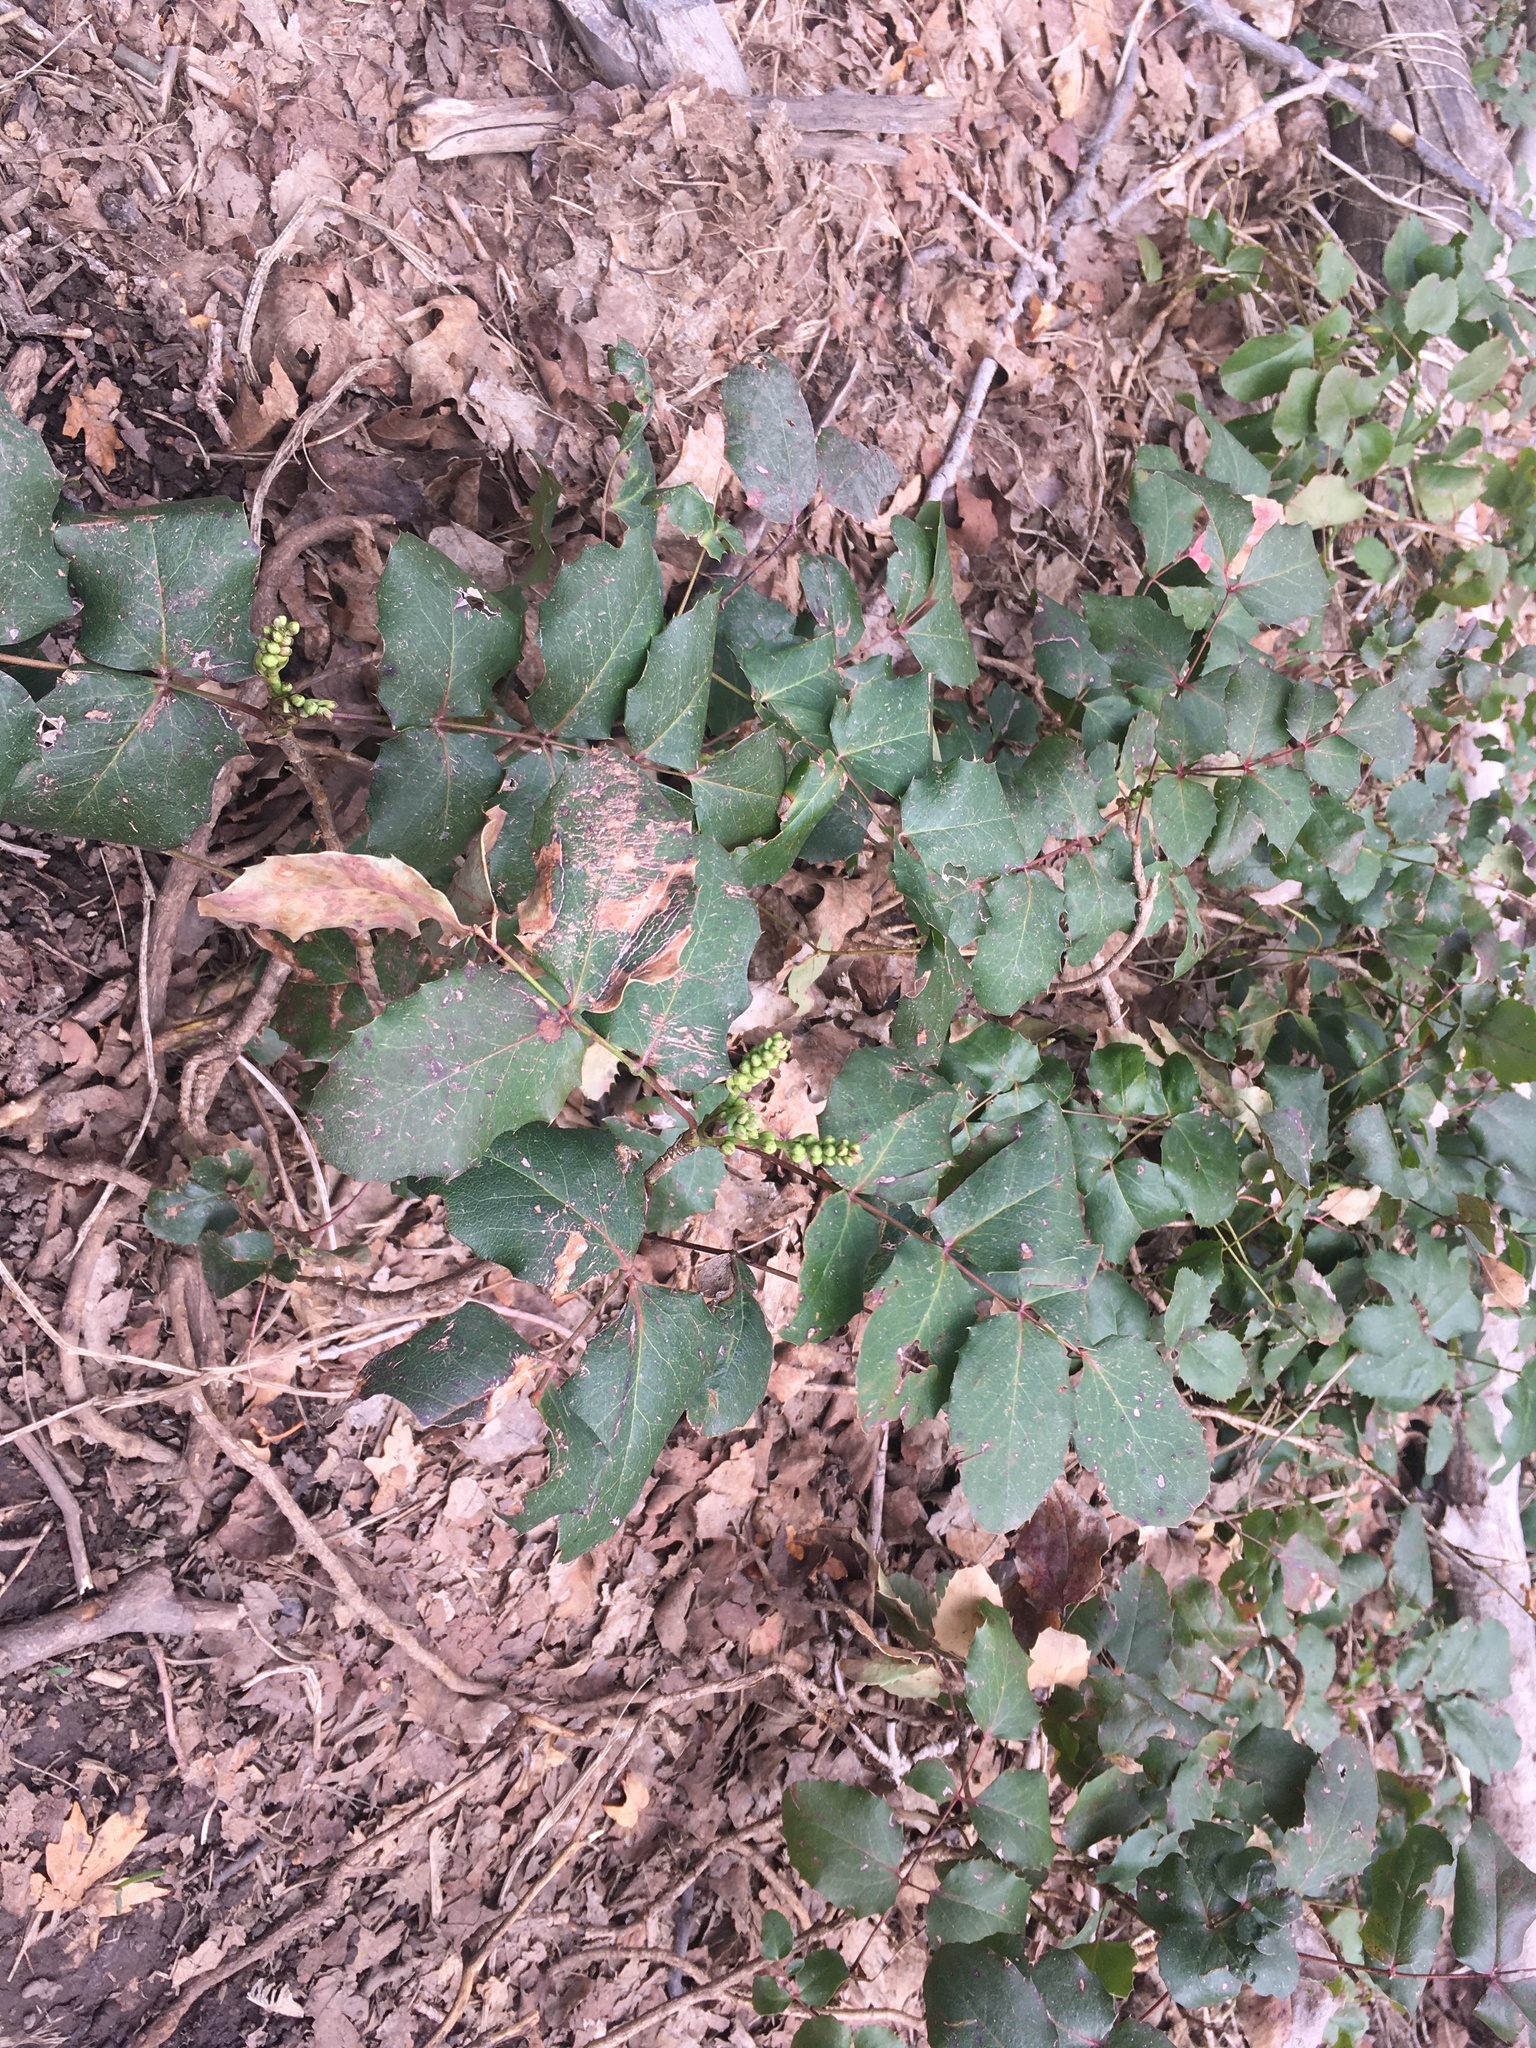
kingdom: Plantae
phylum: Tracheophyta
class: Magnoliopsida
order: Ranunculales
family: Berberidaceae
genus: Mahonia
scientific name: Mahonia repens
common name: Creeping oregon-grape
